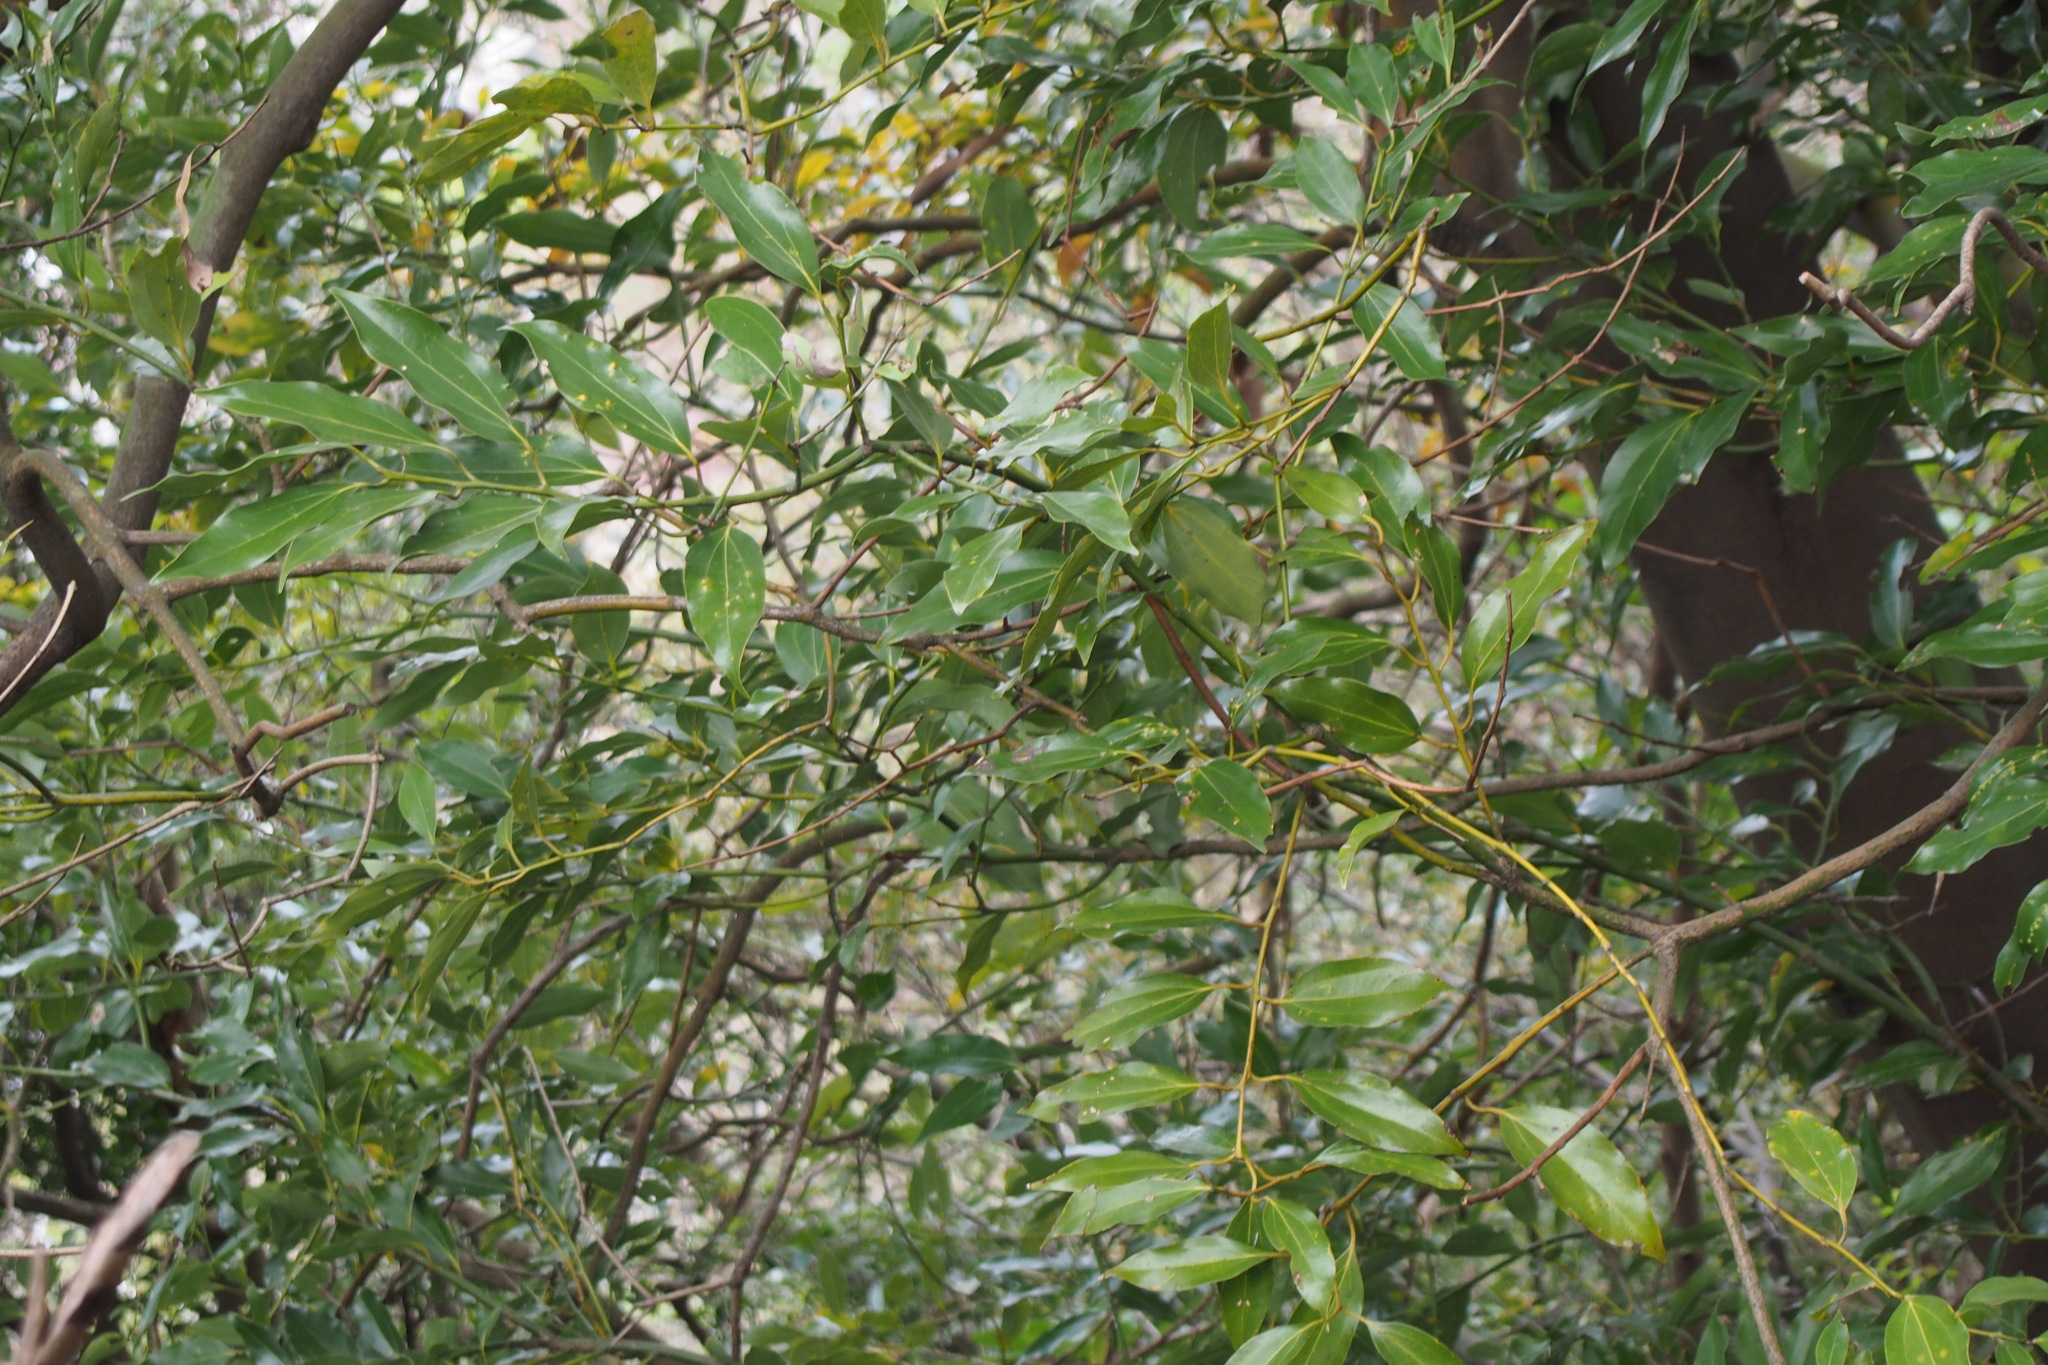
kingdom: Plantae
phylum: Tracheophyta
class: Magnoliopsida
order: Laurales
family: Lauraceae
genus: Cinnamomum
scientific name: Cinnamomum chekiangense
